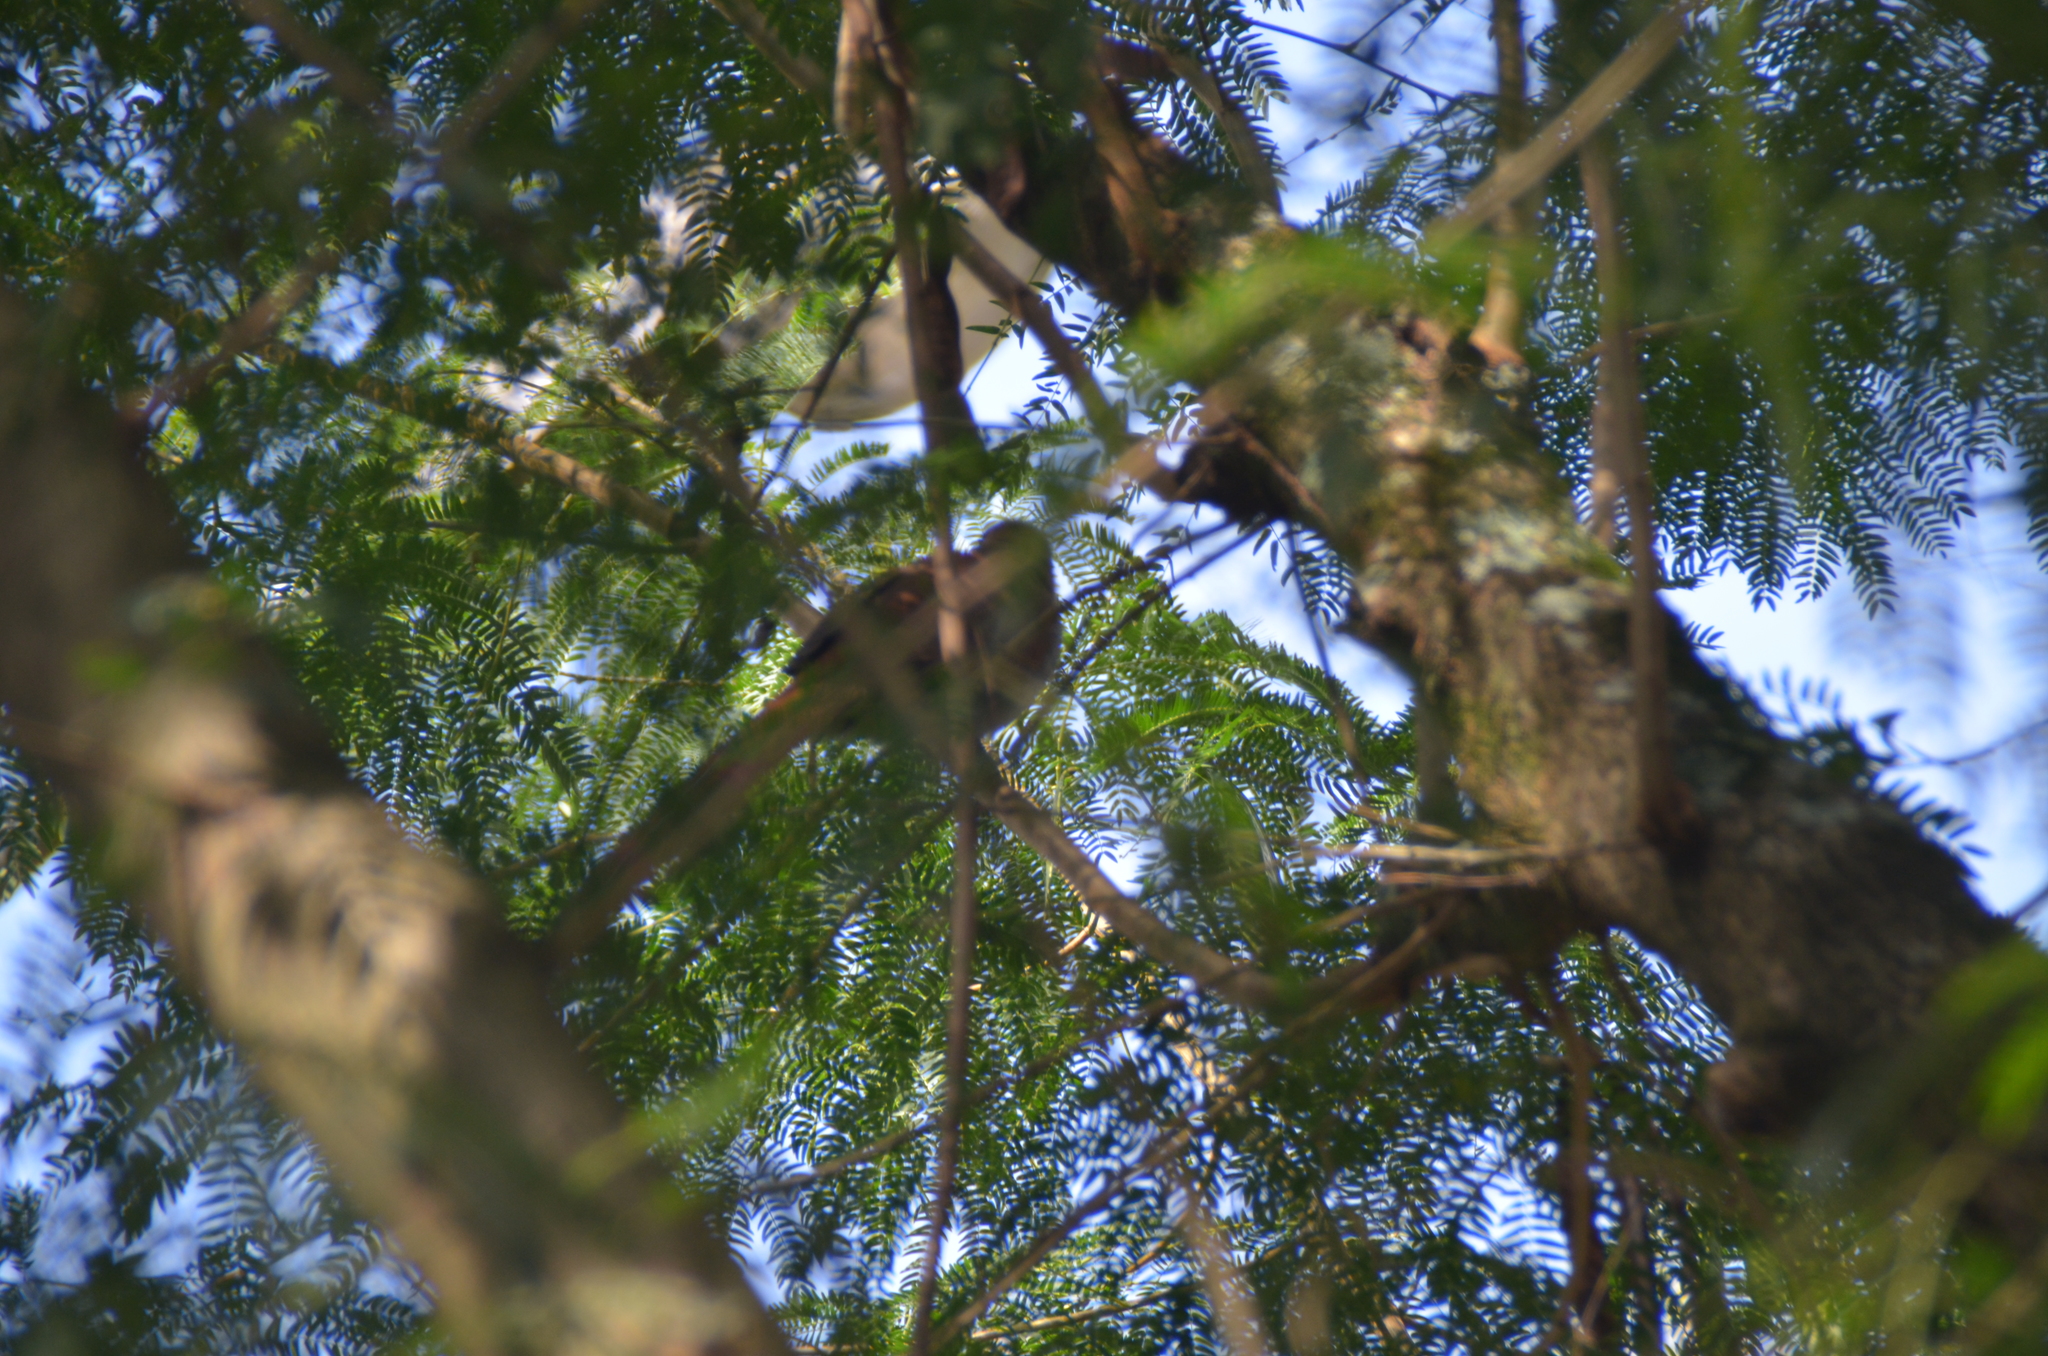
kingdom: Animalia
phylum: Chordata
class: Aves
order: Cuculiformes
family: Cuculidae
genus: Piaya
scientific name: Piaya cayana
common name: Squirrel cuckoo
